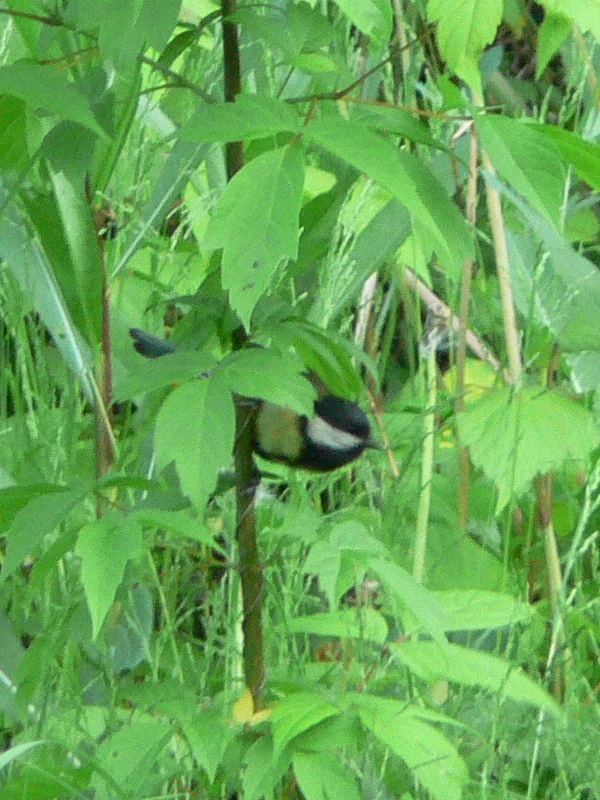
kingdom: Animalia
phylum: Chordata
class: Aves
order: Passeriformes
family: Paridae
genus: Parus
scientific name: Parus major
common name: Great tit
